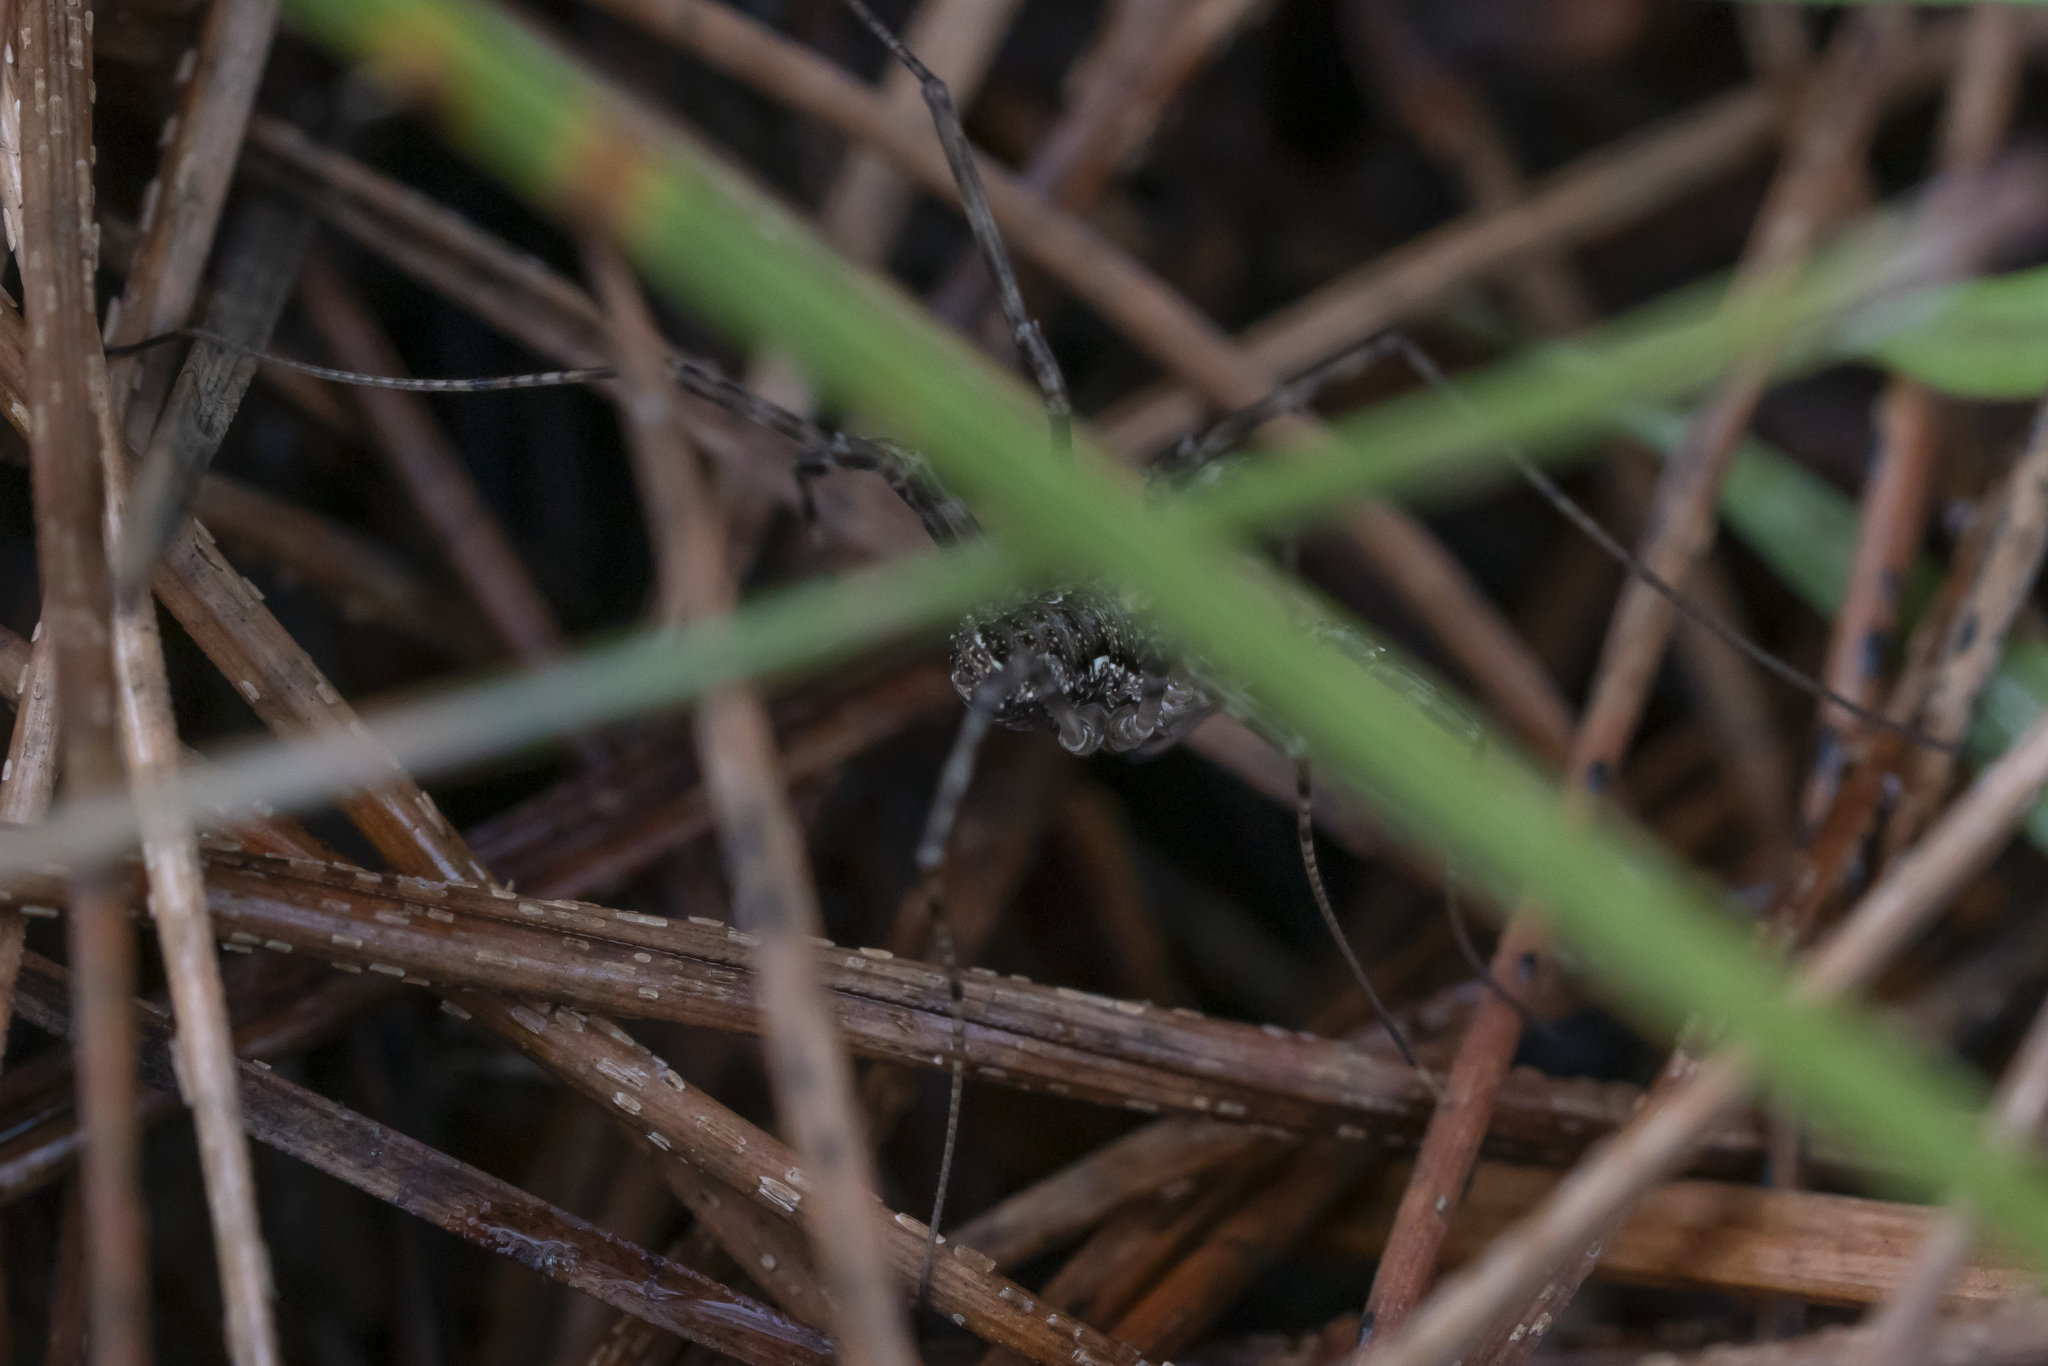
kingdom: Animalia
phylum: Arthropoda
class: Arachnida
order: Opiliones
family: Phalangiidae
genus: Rafalskia
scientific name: Rafalskia cretica
